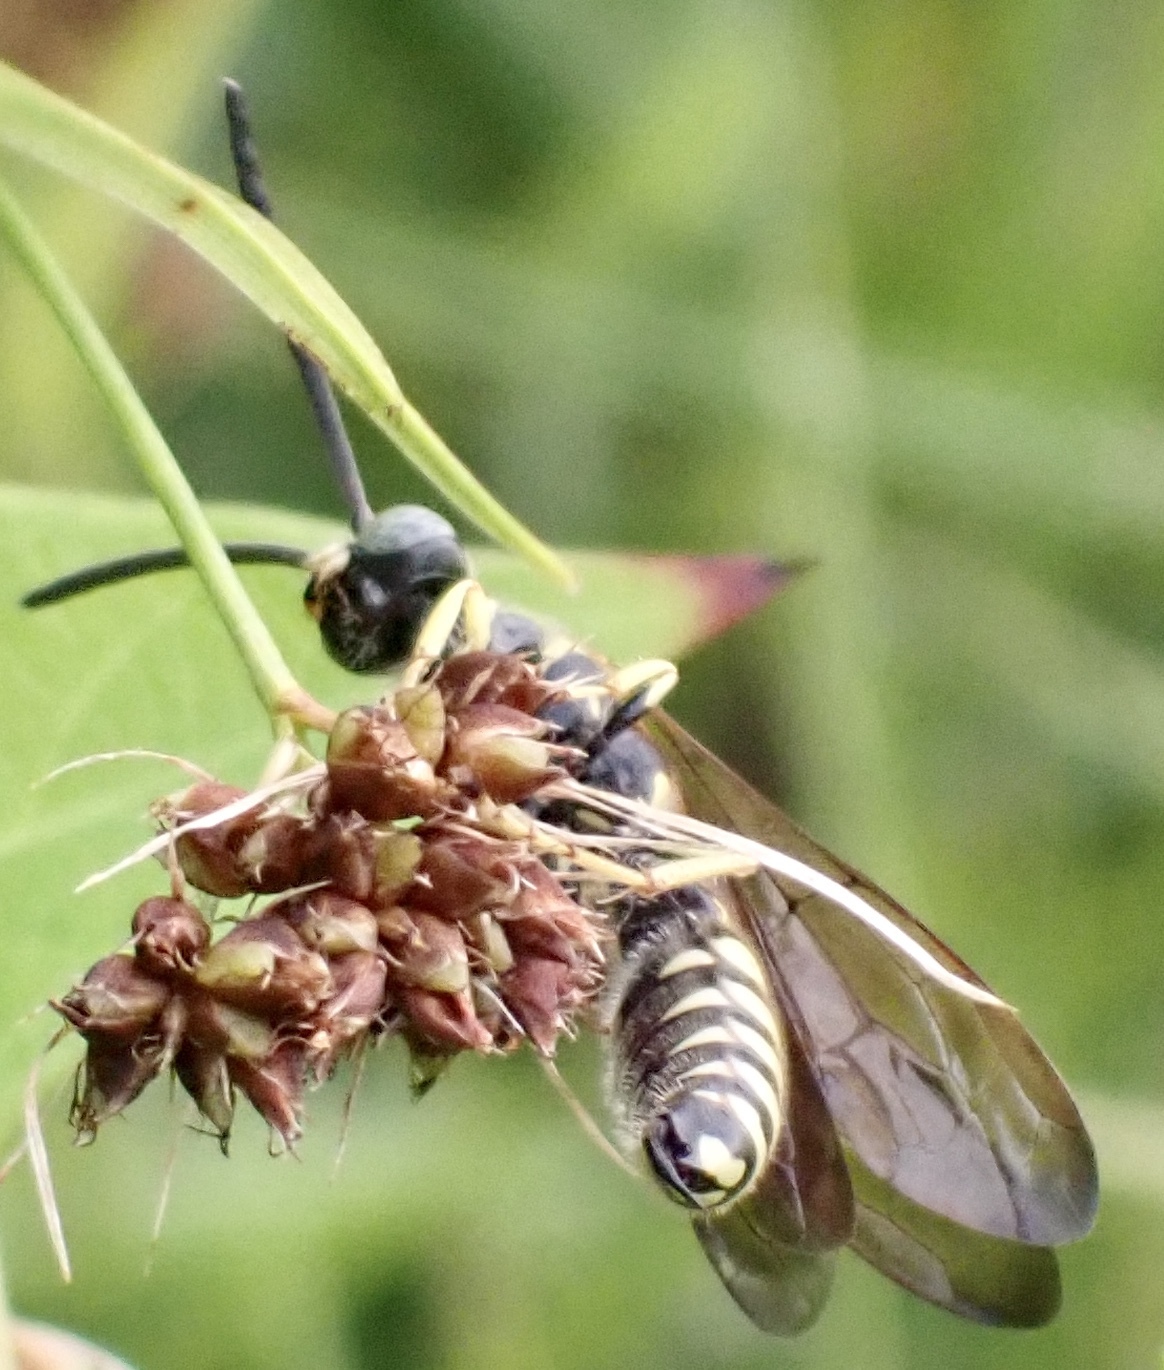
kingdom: Animalia
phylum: Arthropoda
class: Insecta
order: Hymenoptera
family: Tiphiidae
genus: Myzinum
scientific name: Myzinum quinquecinctum
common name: Five-banded thynnid wasp
